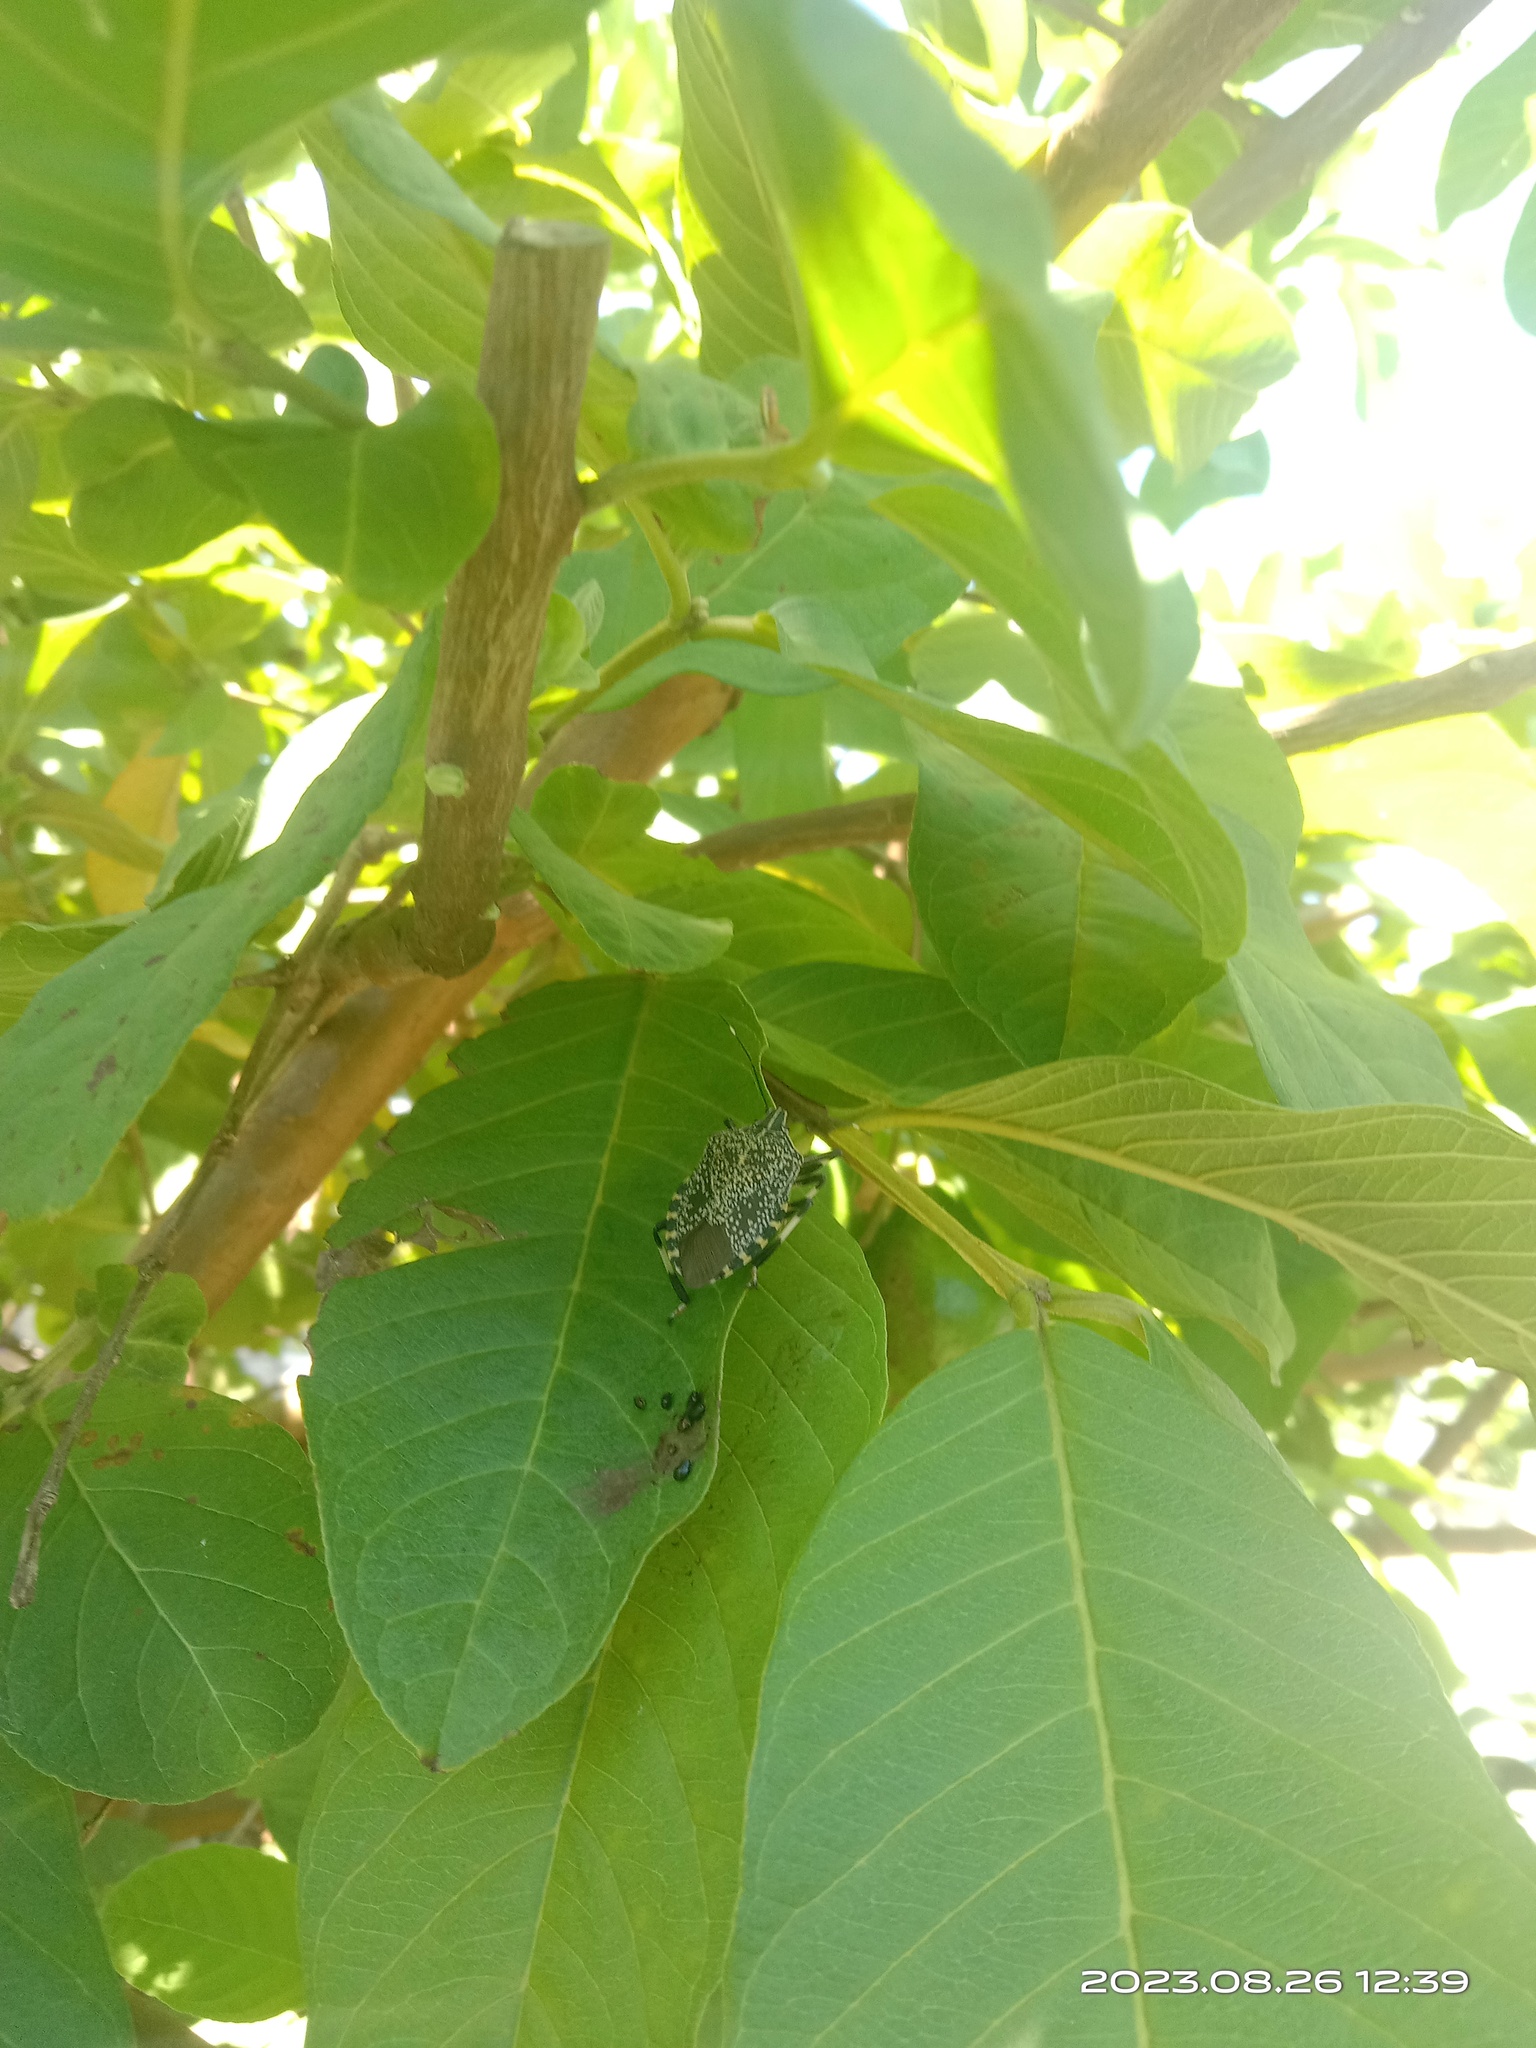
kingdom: Animalia
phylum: Arthropoda
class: Insecta
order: Hemiptera
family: Pentatomidae
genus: Erthesina
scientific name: Erthesina fullo
